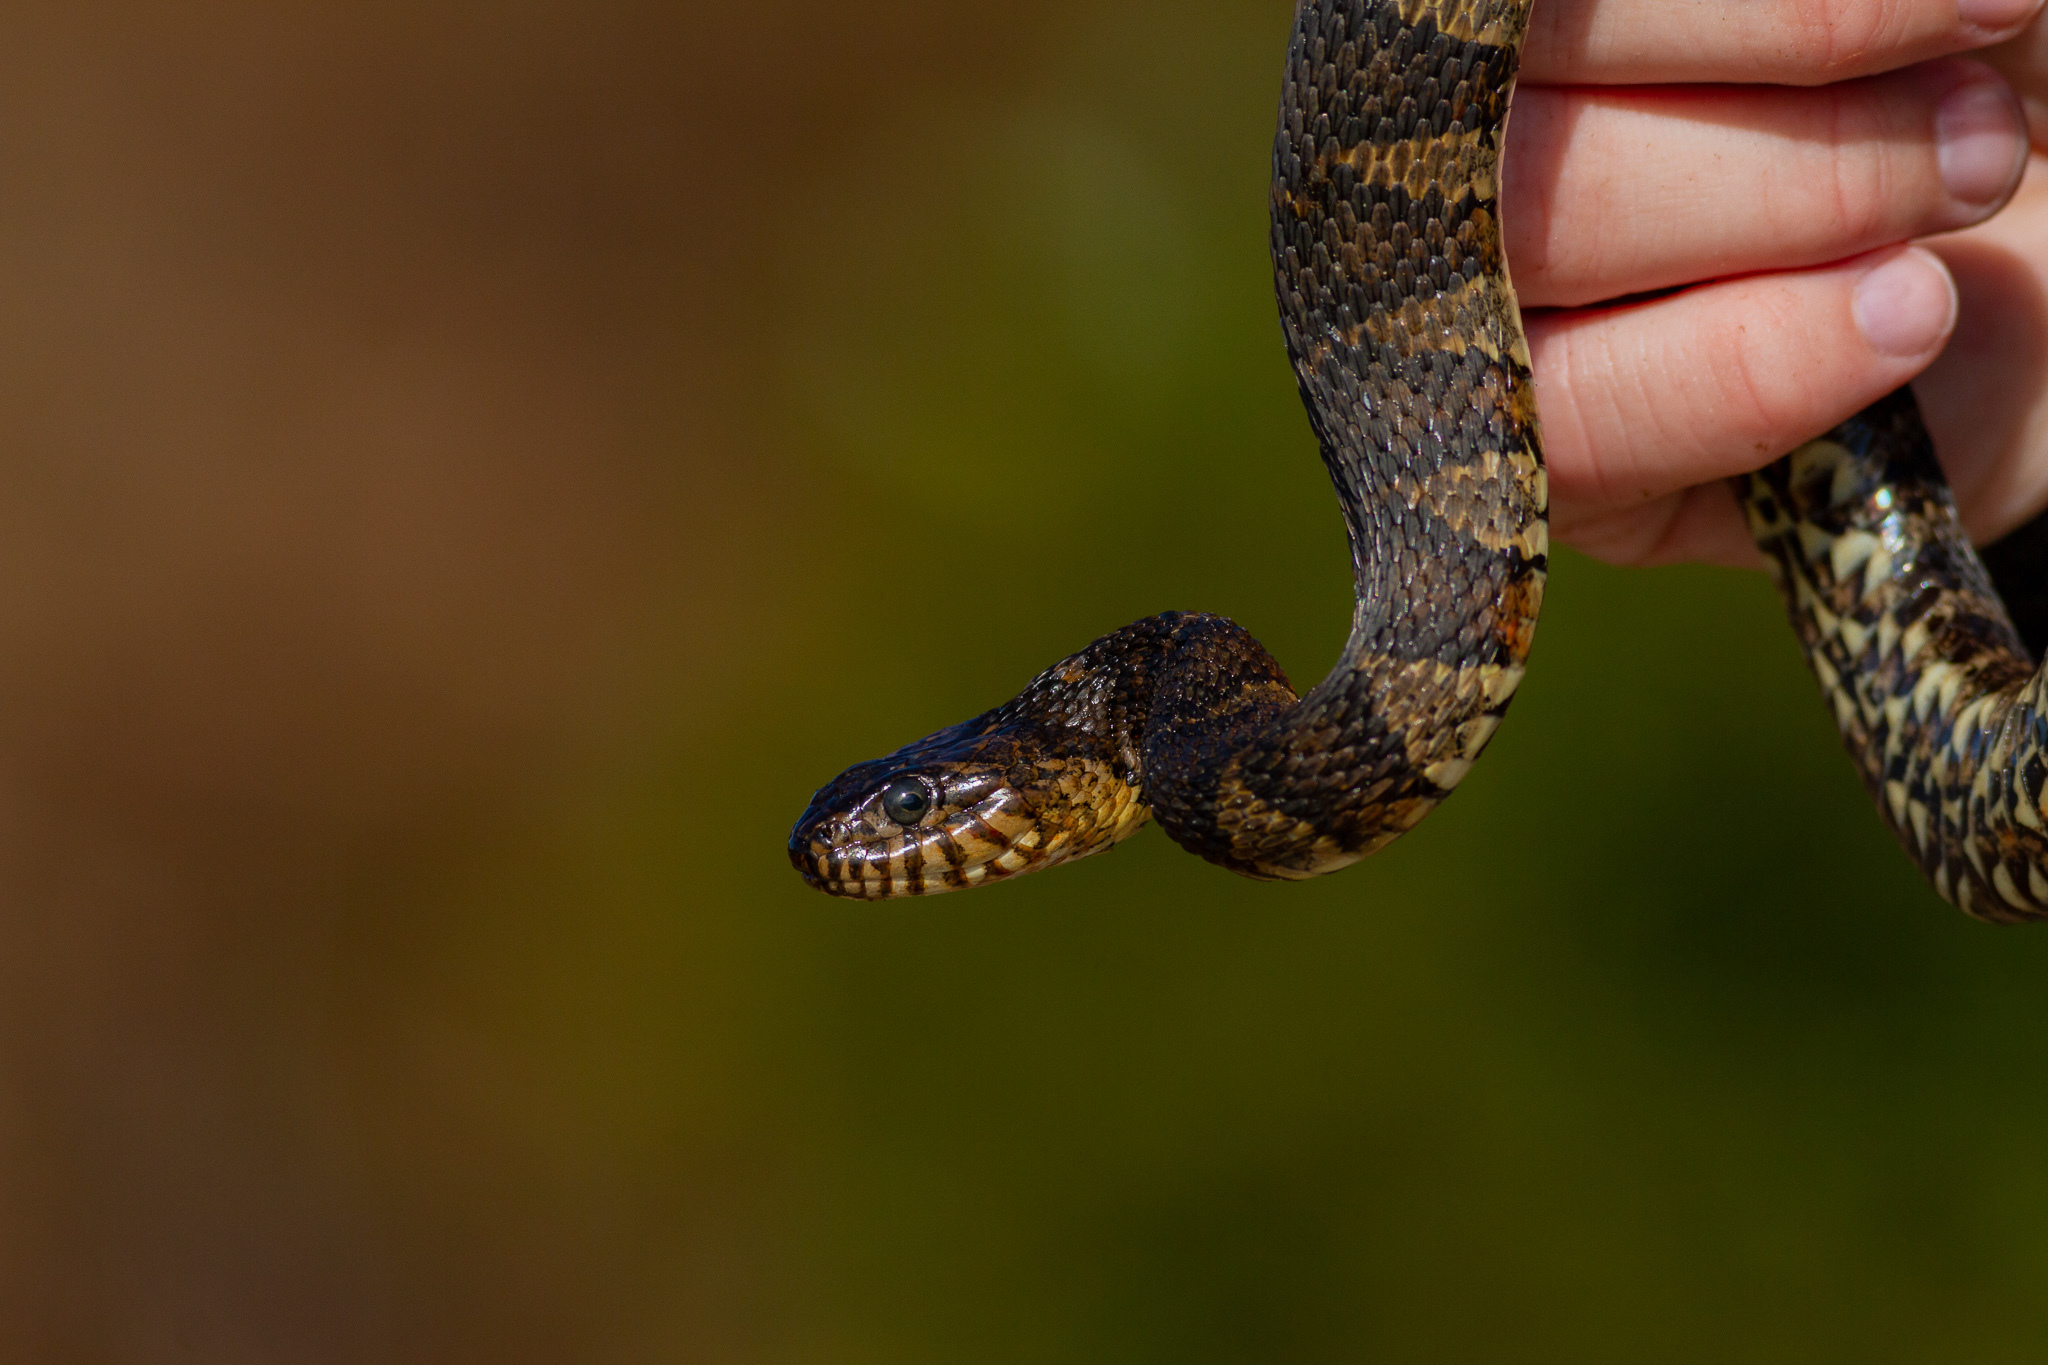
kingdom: Animalia
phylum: Chordata
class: Squamata
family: Colubridae
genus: Nerodia
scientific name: Nerodia sipedon
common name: Northern water snake
